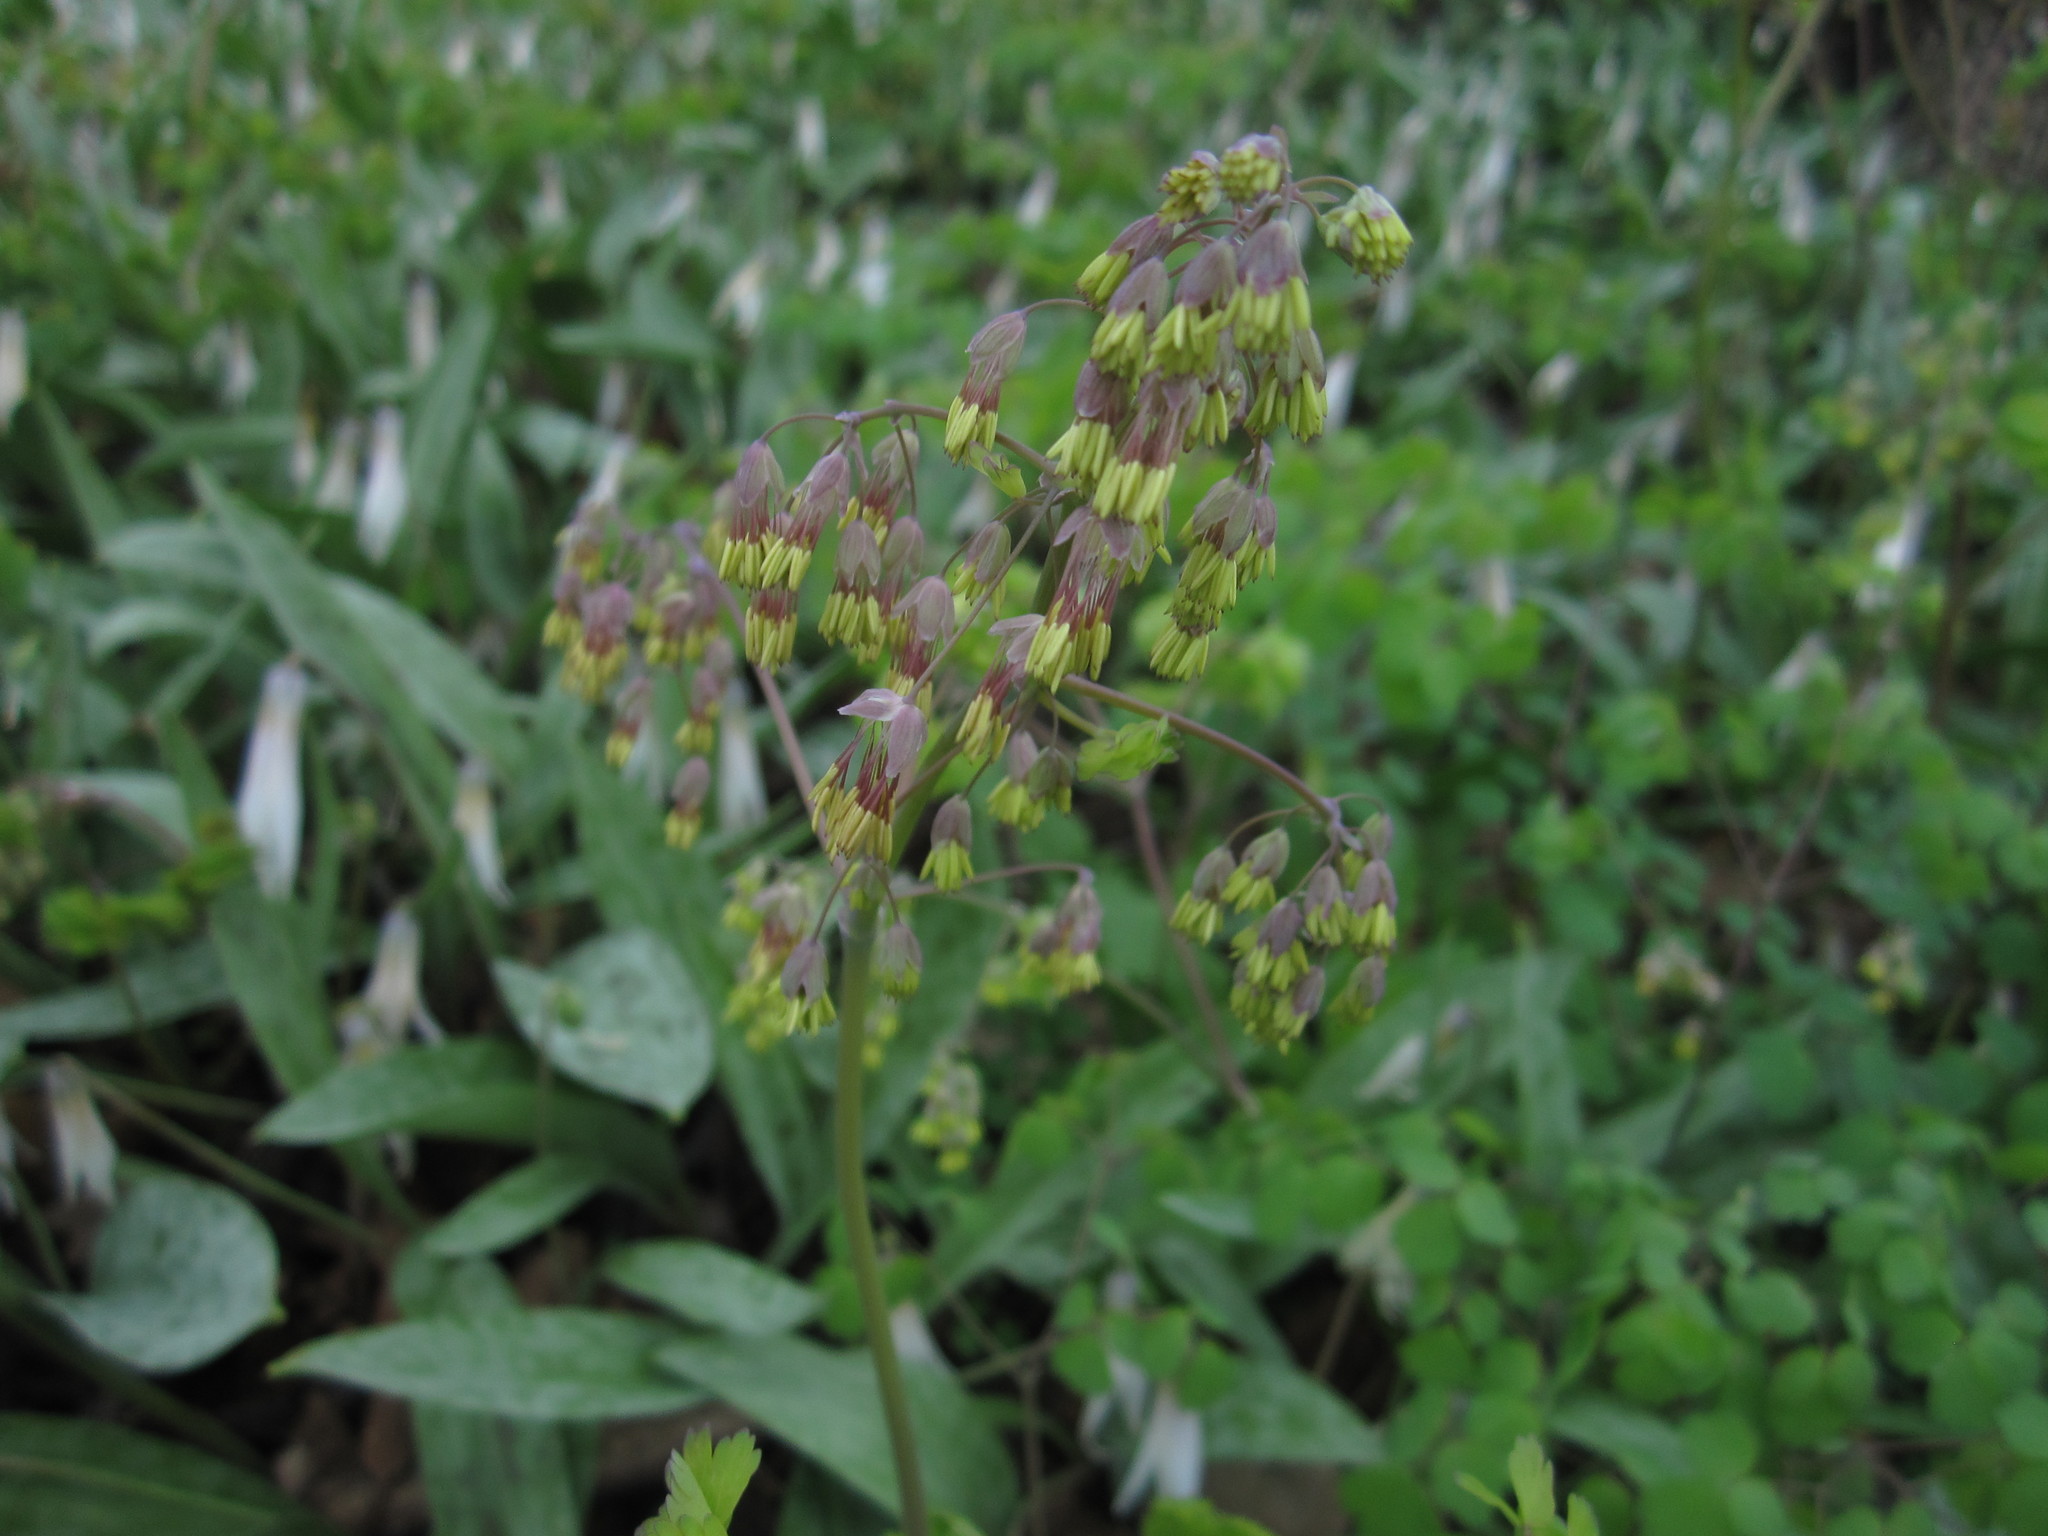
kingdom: Plantae
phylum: Tracheophyta
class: Magnoliopsida
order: Ranunculales
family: Ranunculaceae
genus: Thalictrum
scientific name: Thalictrum dioicum
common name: Early meadow-rue
